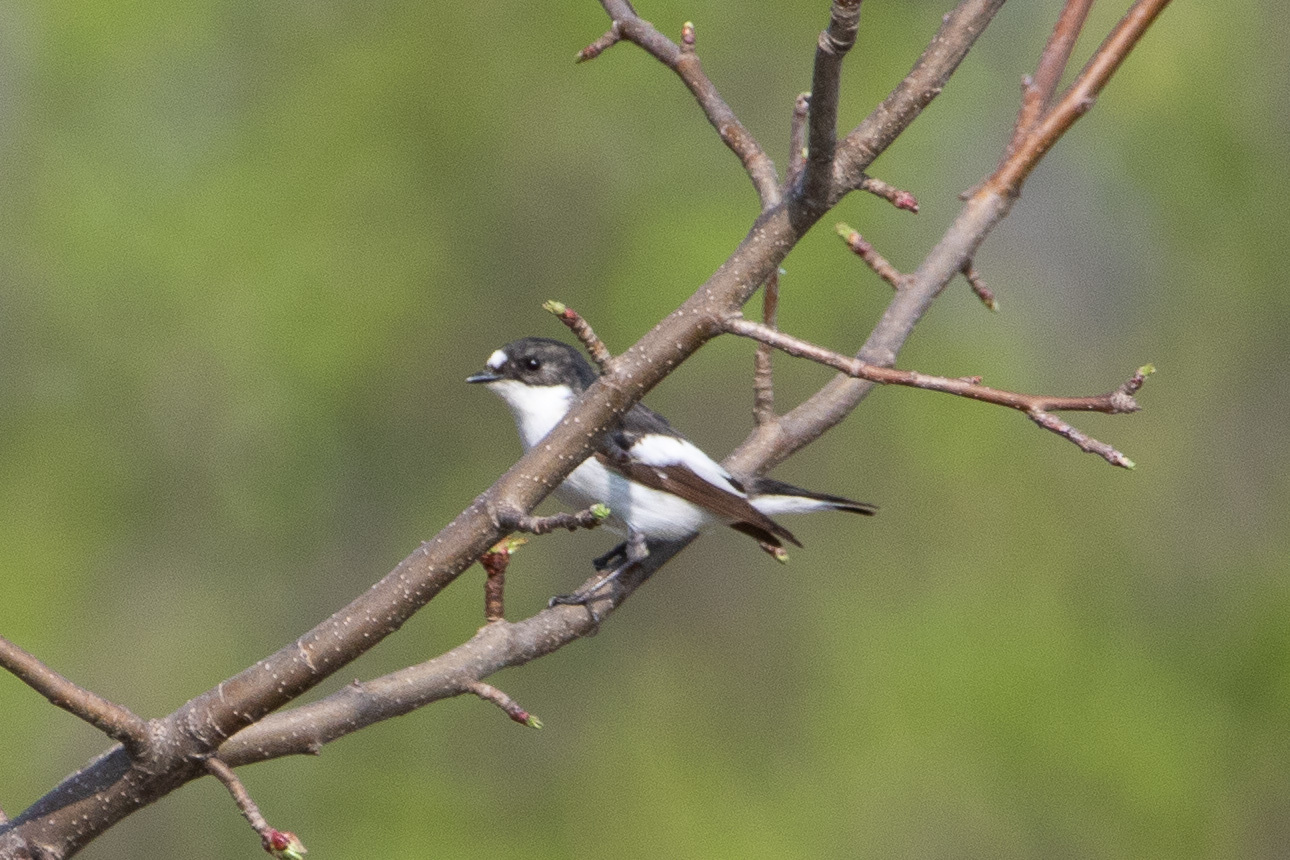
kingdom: Animalia
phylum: Chordata
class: Aves
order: Passeriformes
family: Muscicapidae
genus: Ficedula
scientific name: Ficedula hypoleuca
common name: European pied flycatcher
